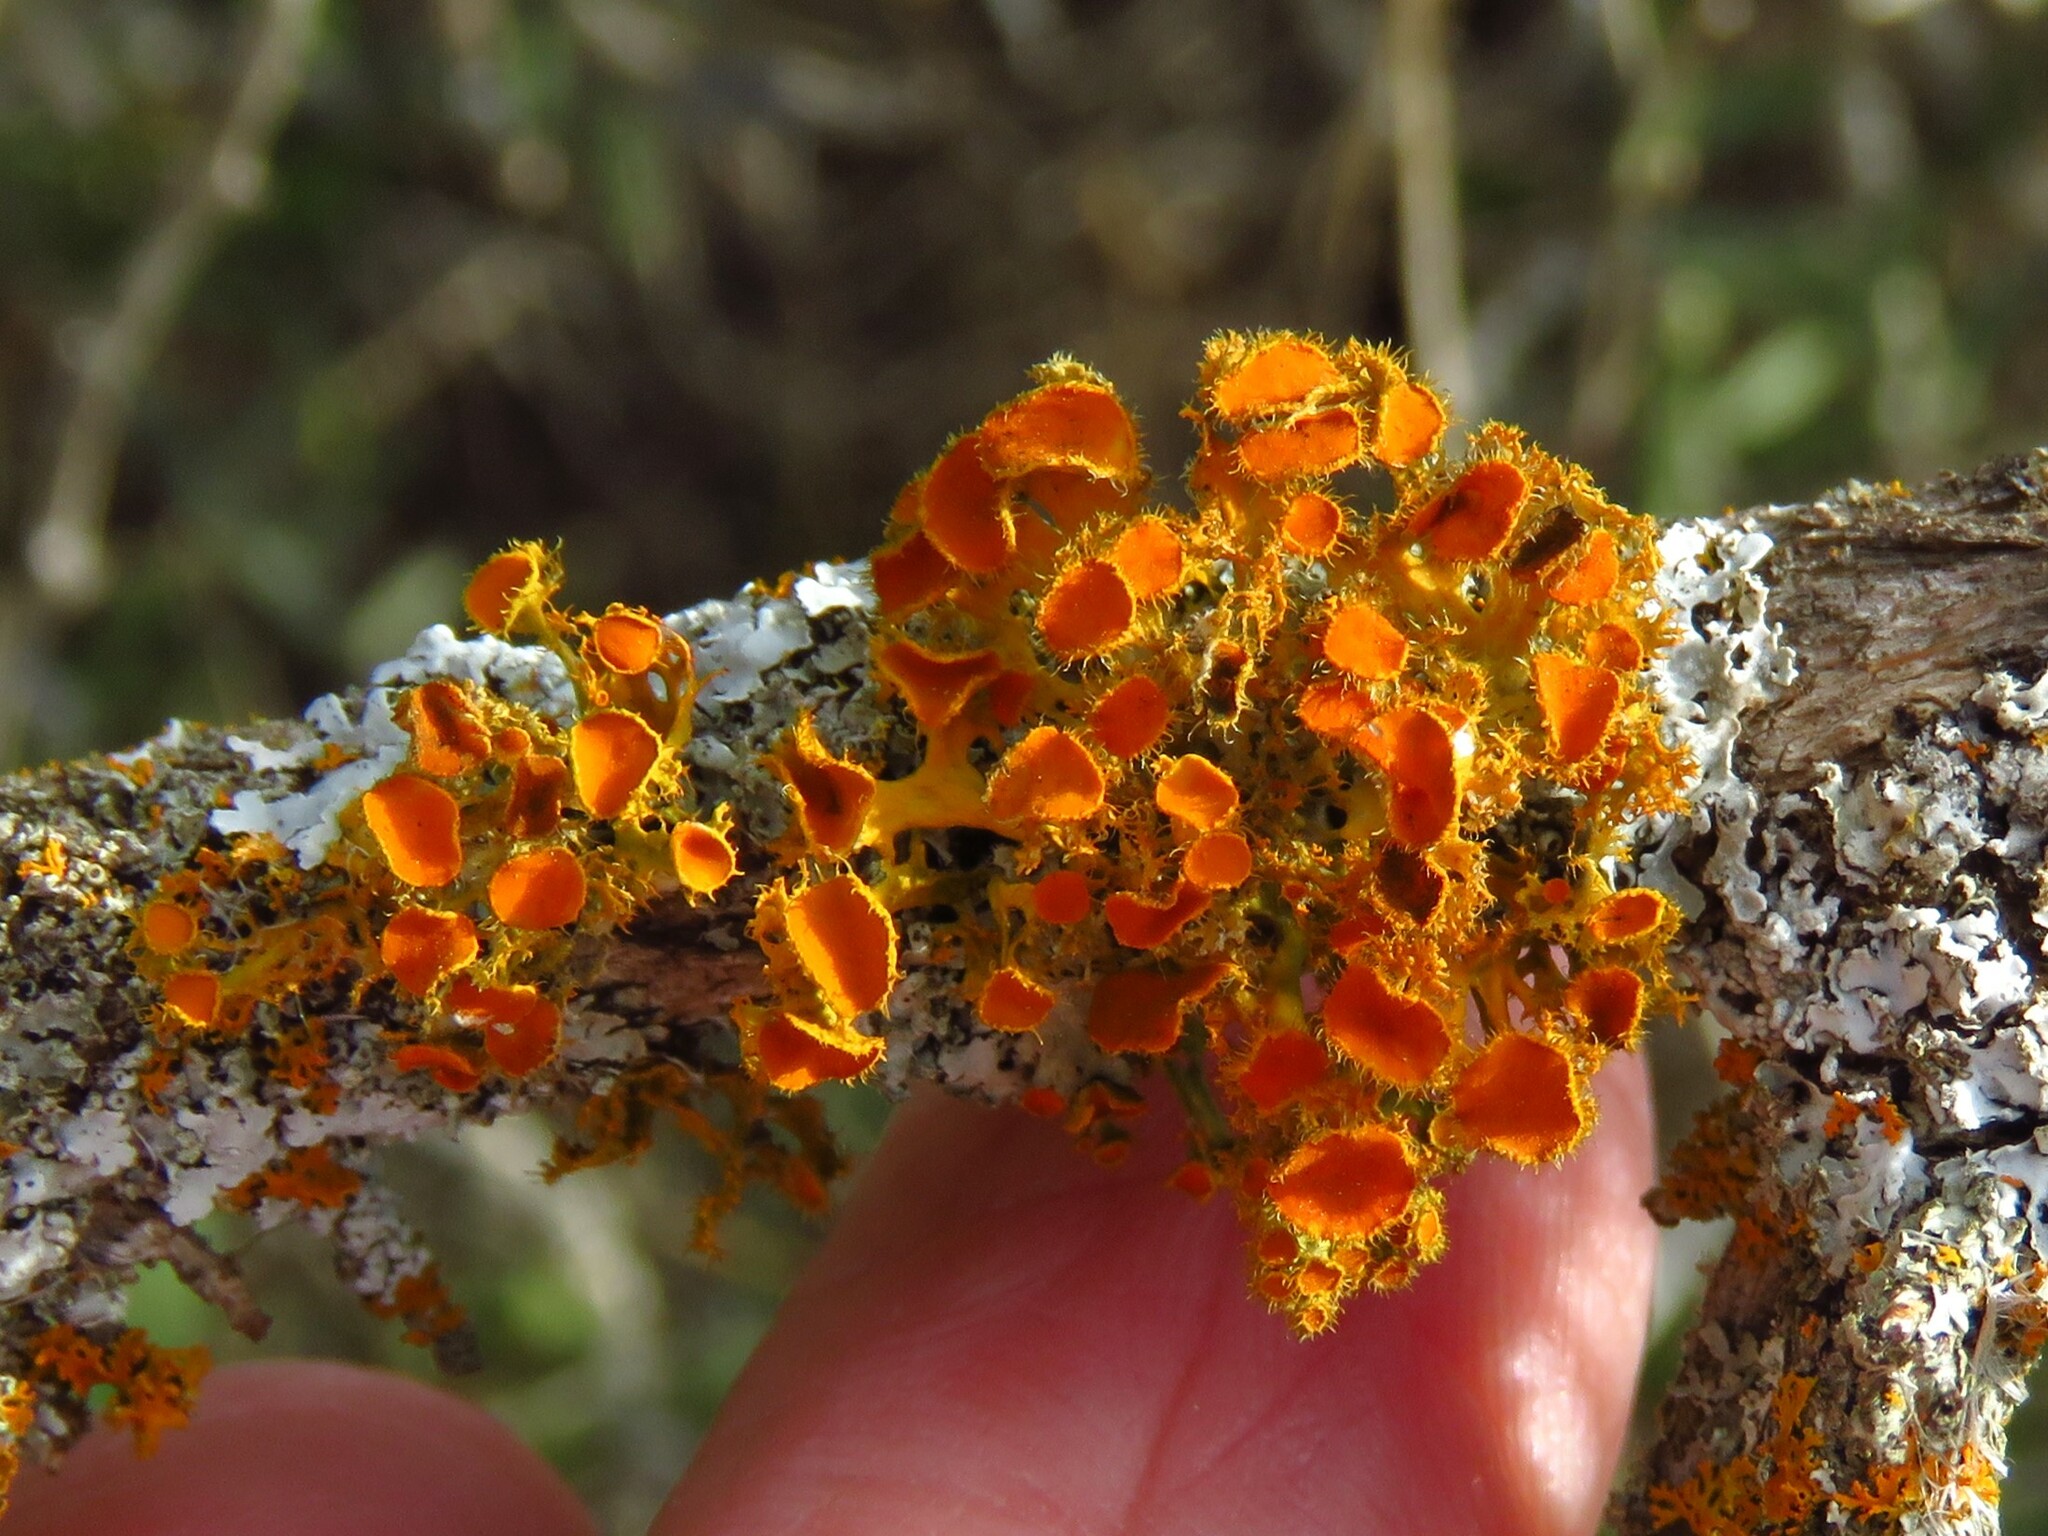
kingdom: Fungi
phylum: Ascomycota
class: Lecanoromycetes
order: Teloschistales
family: Teloschistaceae
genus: Niorma
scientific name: Niorma chrysophthalma
